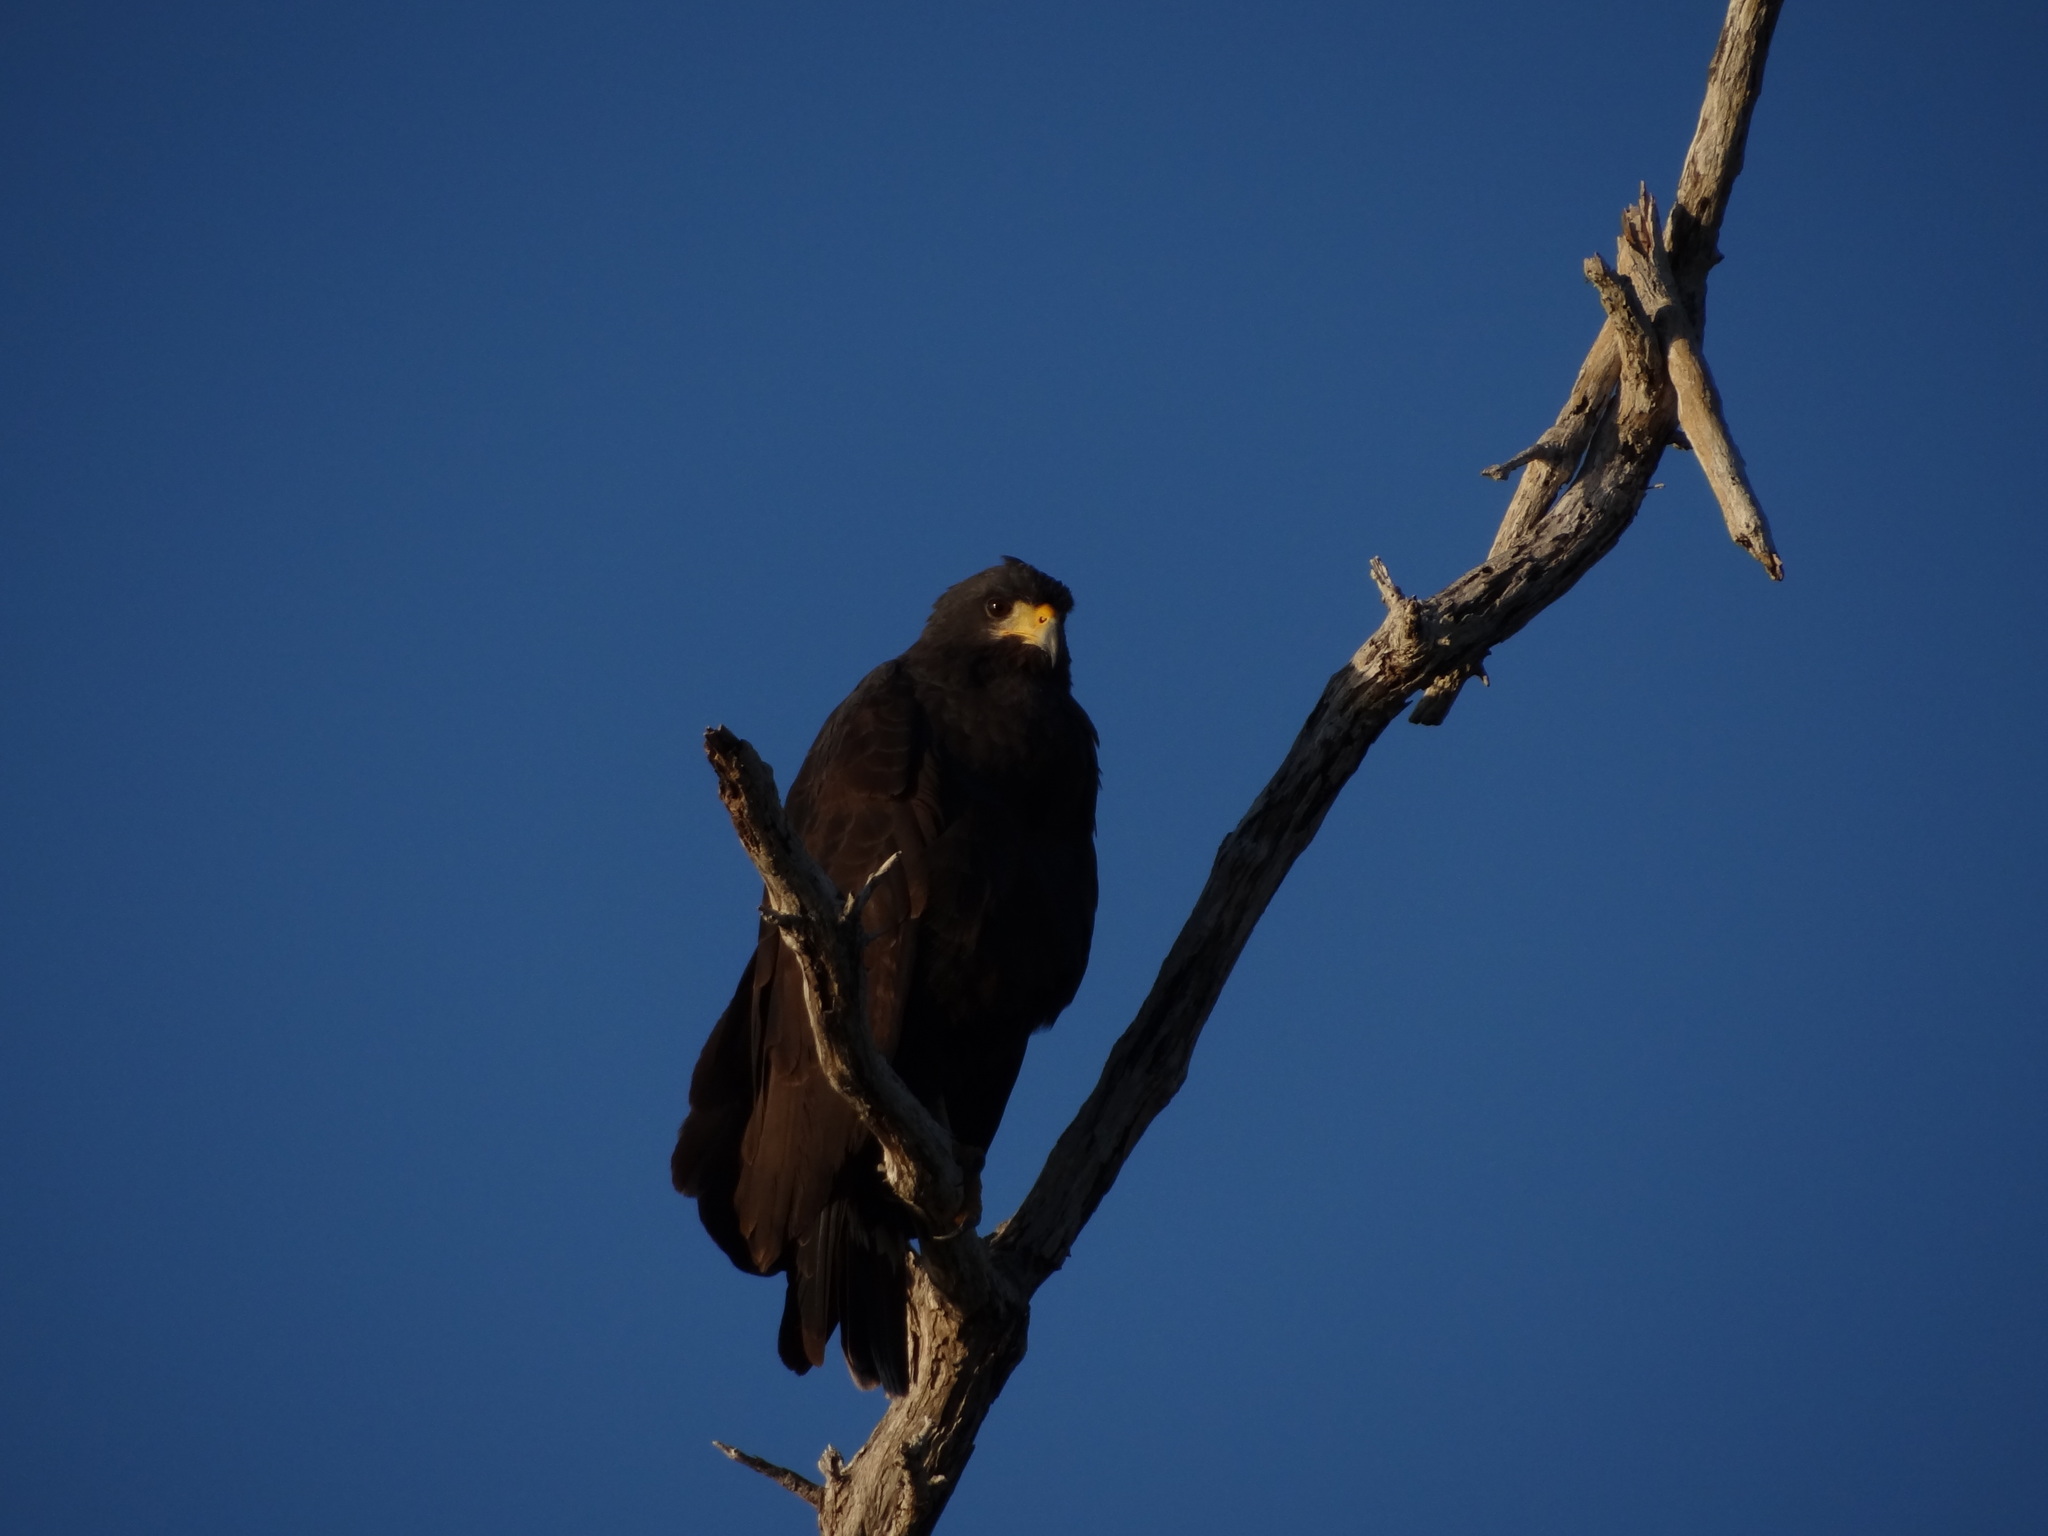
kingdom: Animalia
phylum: Chordata
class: Aves
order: Accipitriformes
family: Accipitridae
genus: Buteogallus
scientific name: Buteogallus anthracinus
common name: Common black hawk
